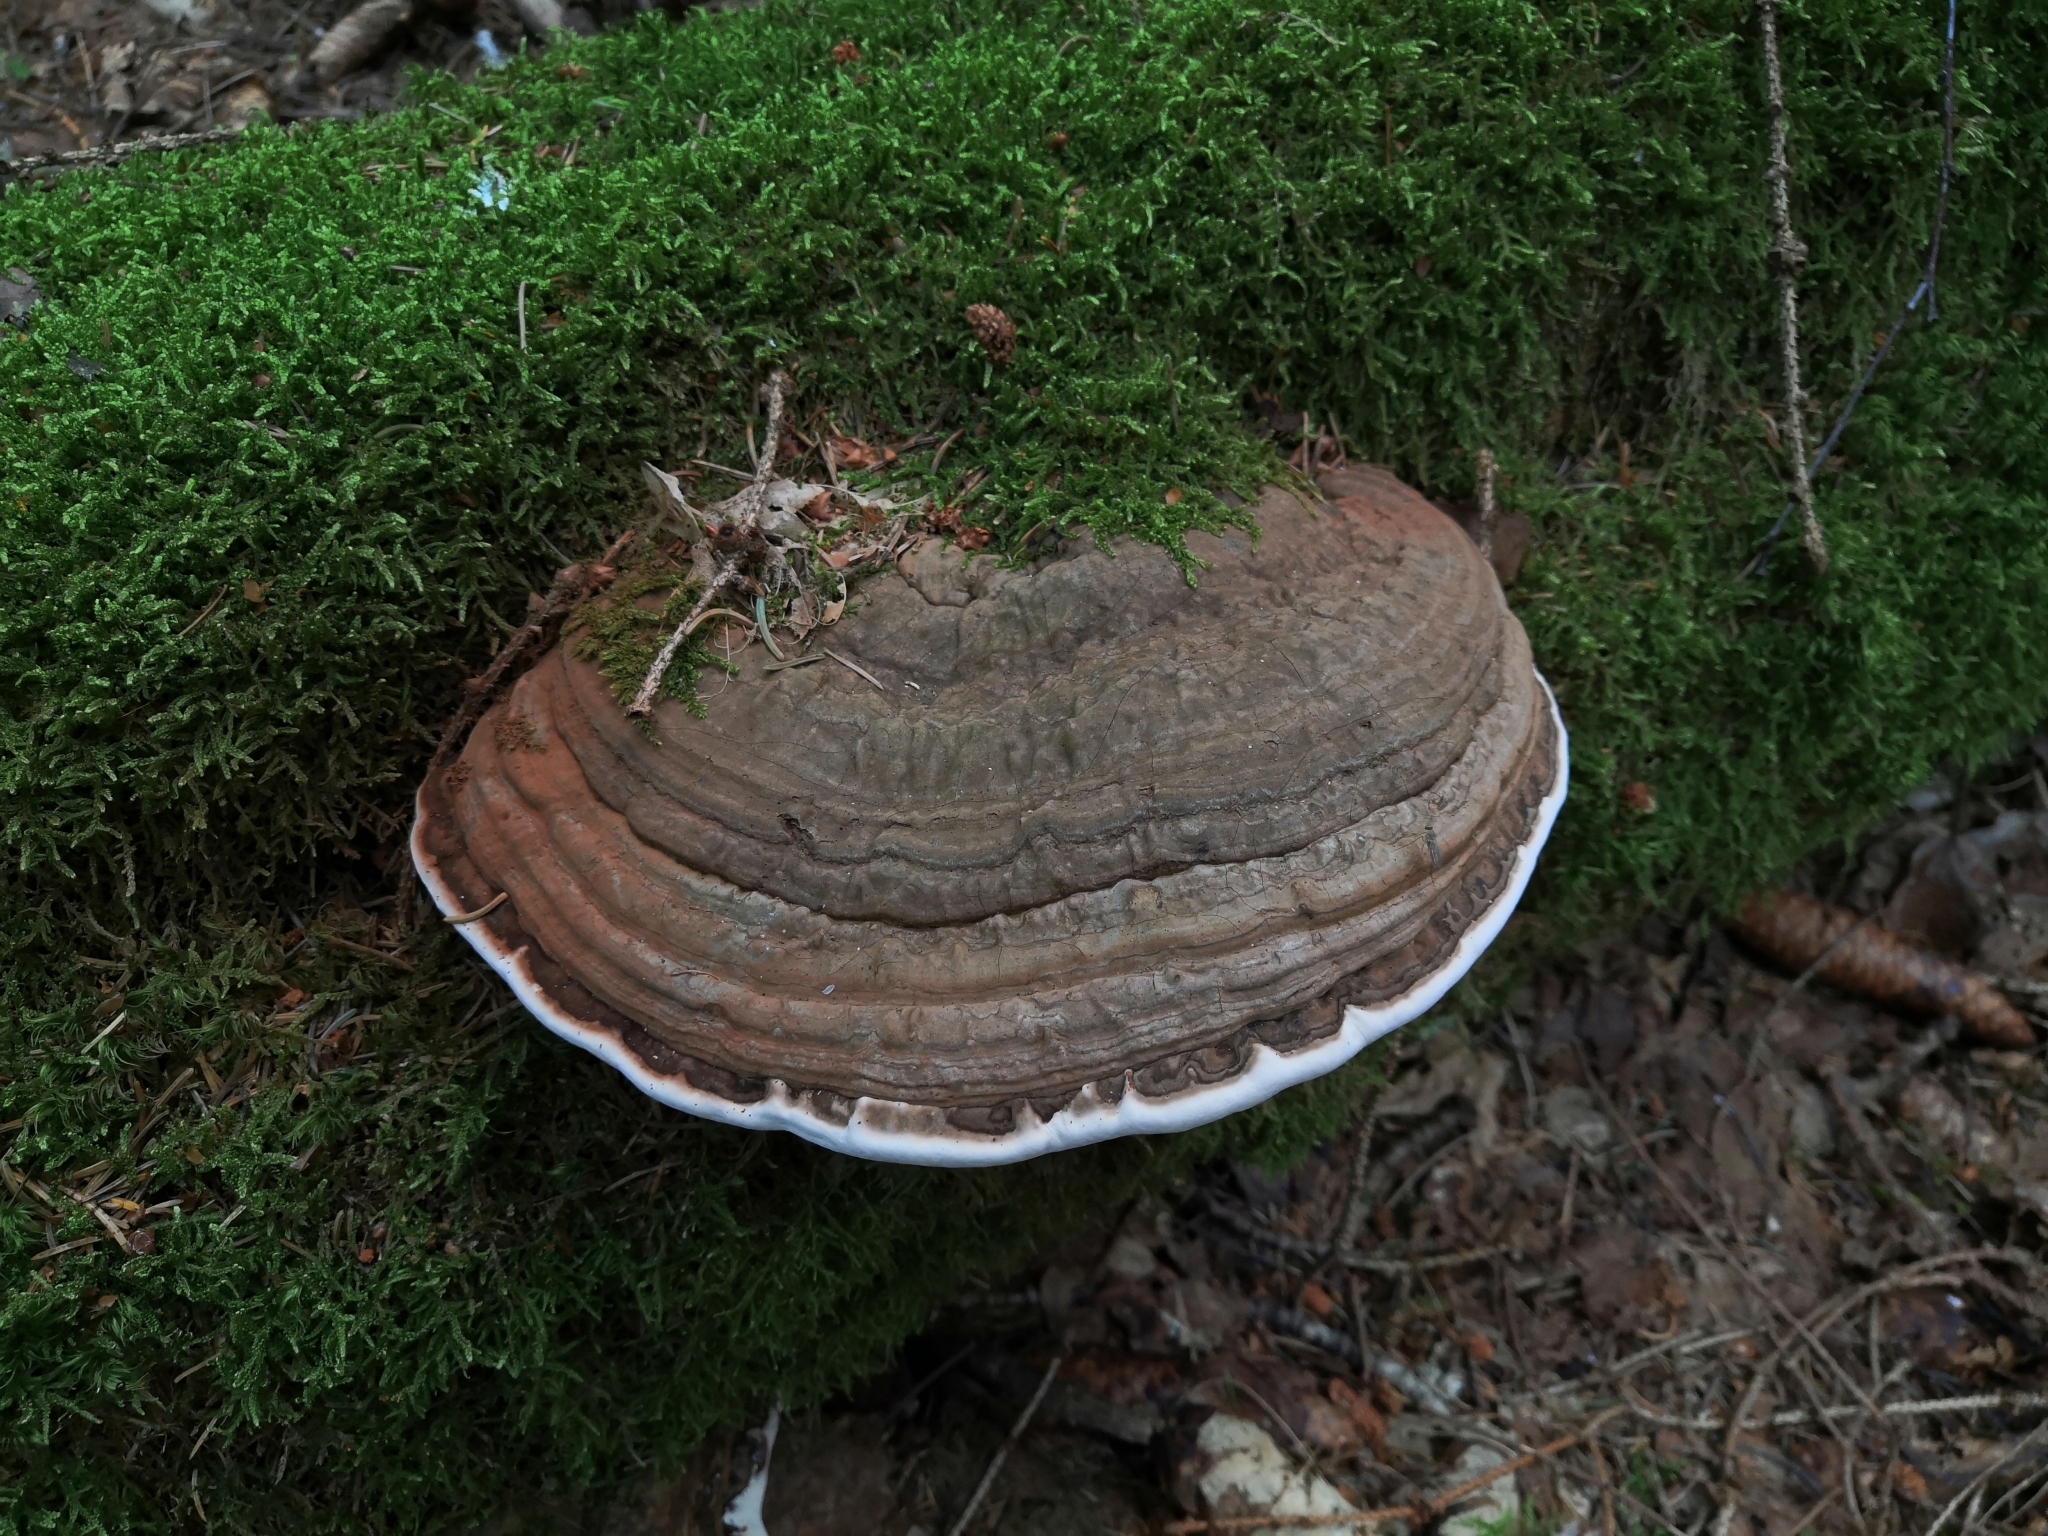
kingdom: Fungi
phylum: Basidiomycota
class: Agaricomycetes
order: Polyporales
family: Polyporaceae
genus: Ganoderma
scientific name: Ganoderma applanatum
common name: Artist's bracket
